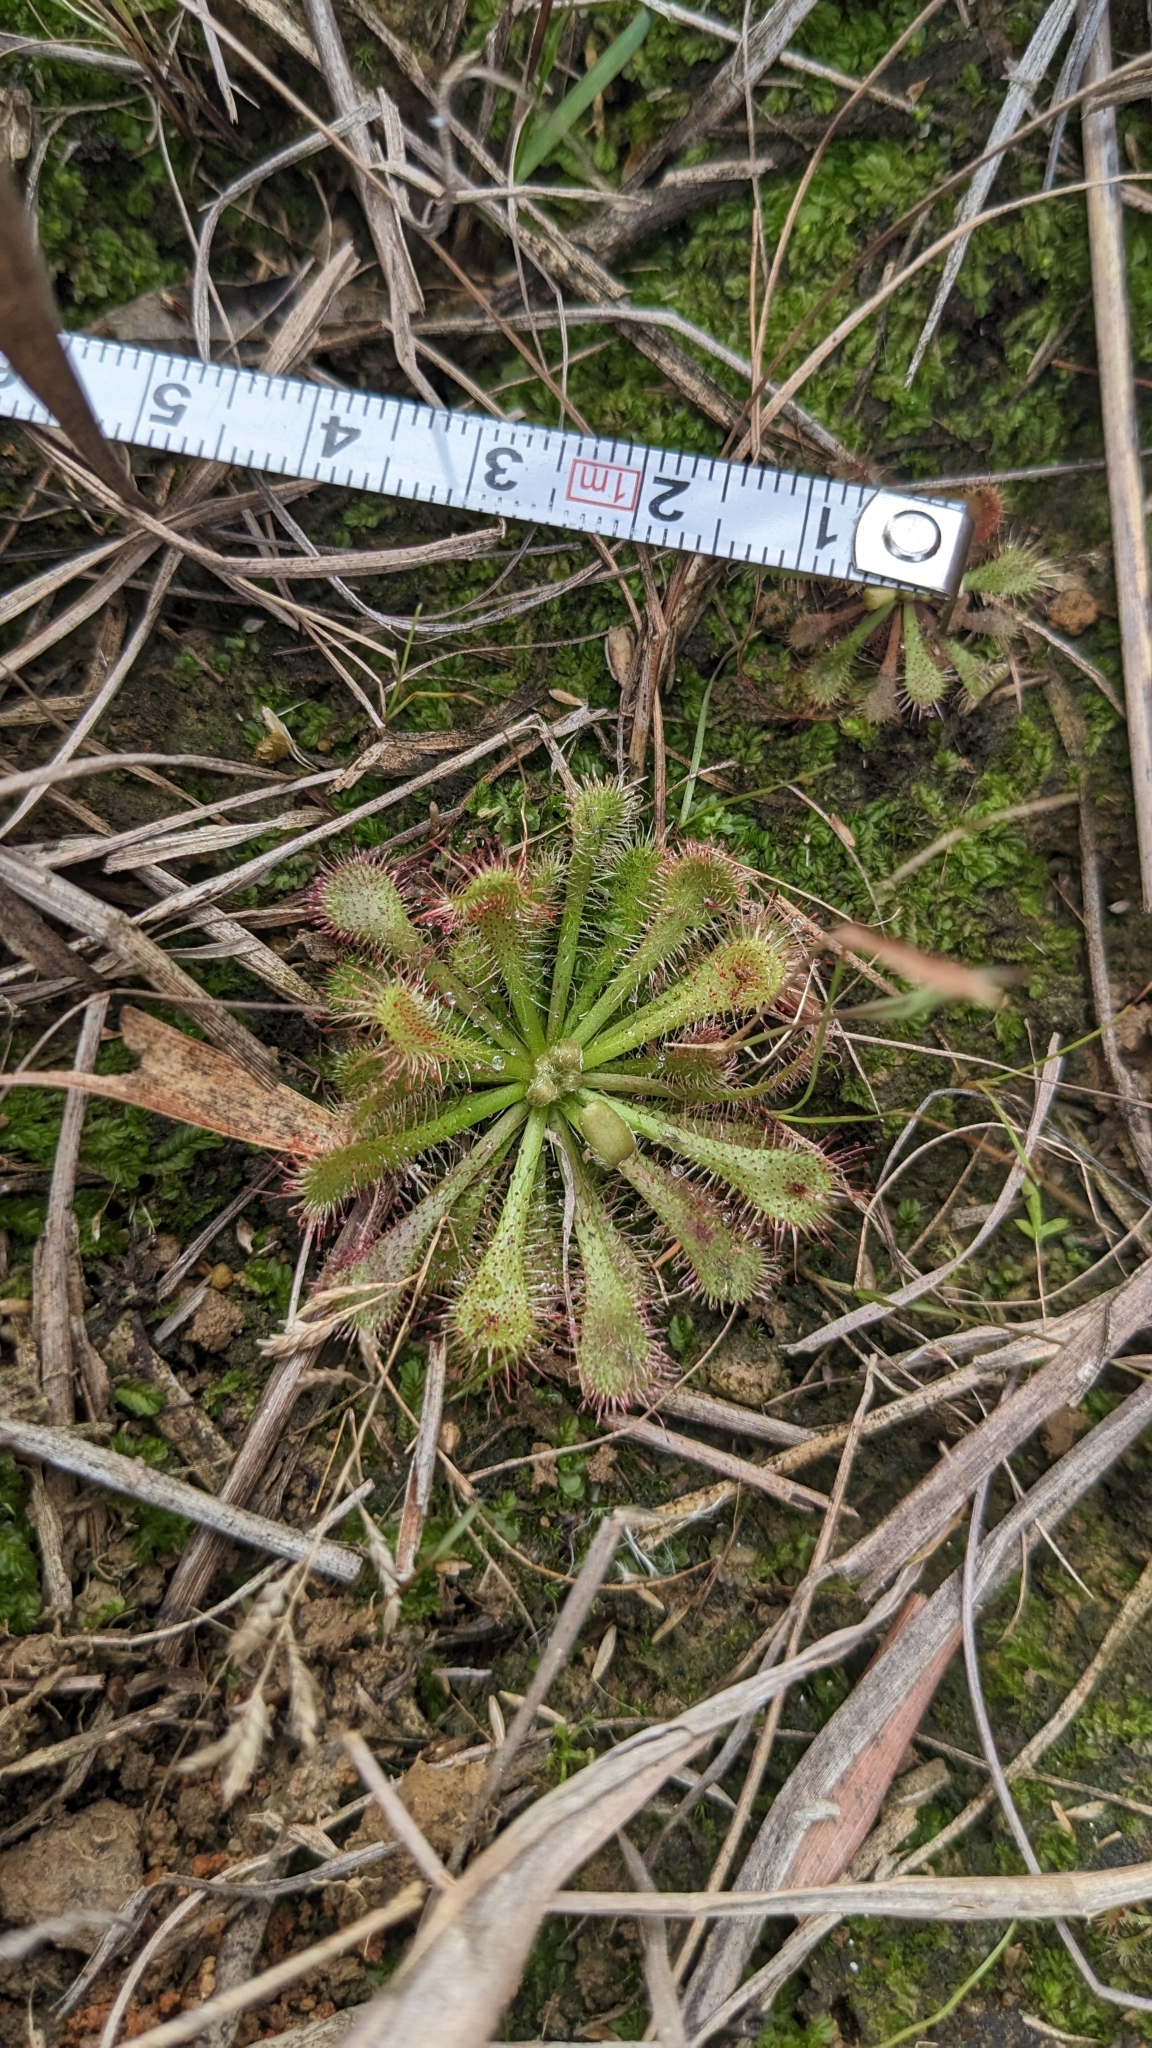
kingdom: Plantae
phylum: Tracheophyta
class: Magnoliopsida
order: Caryophyllales
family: Droseraceae
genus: Drosera
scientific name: Drosera spatulata
